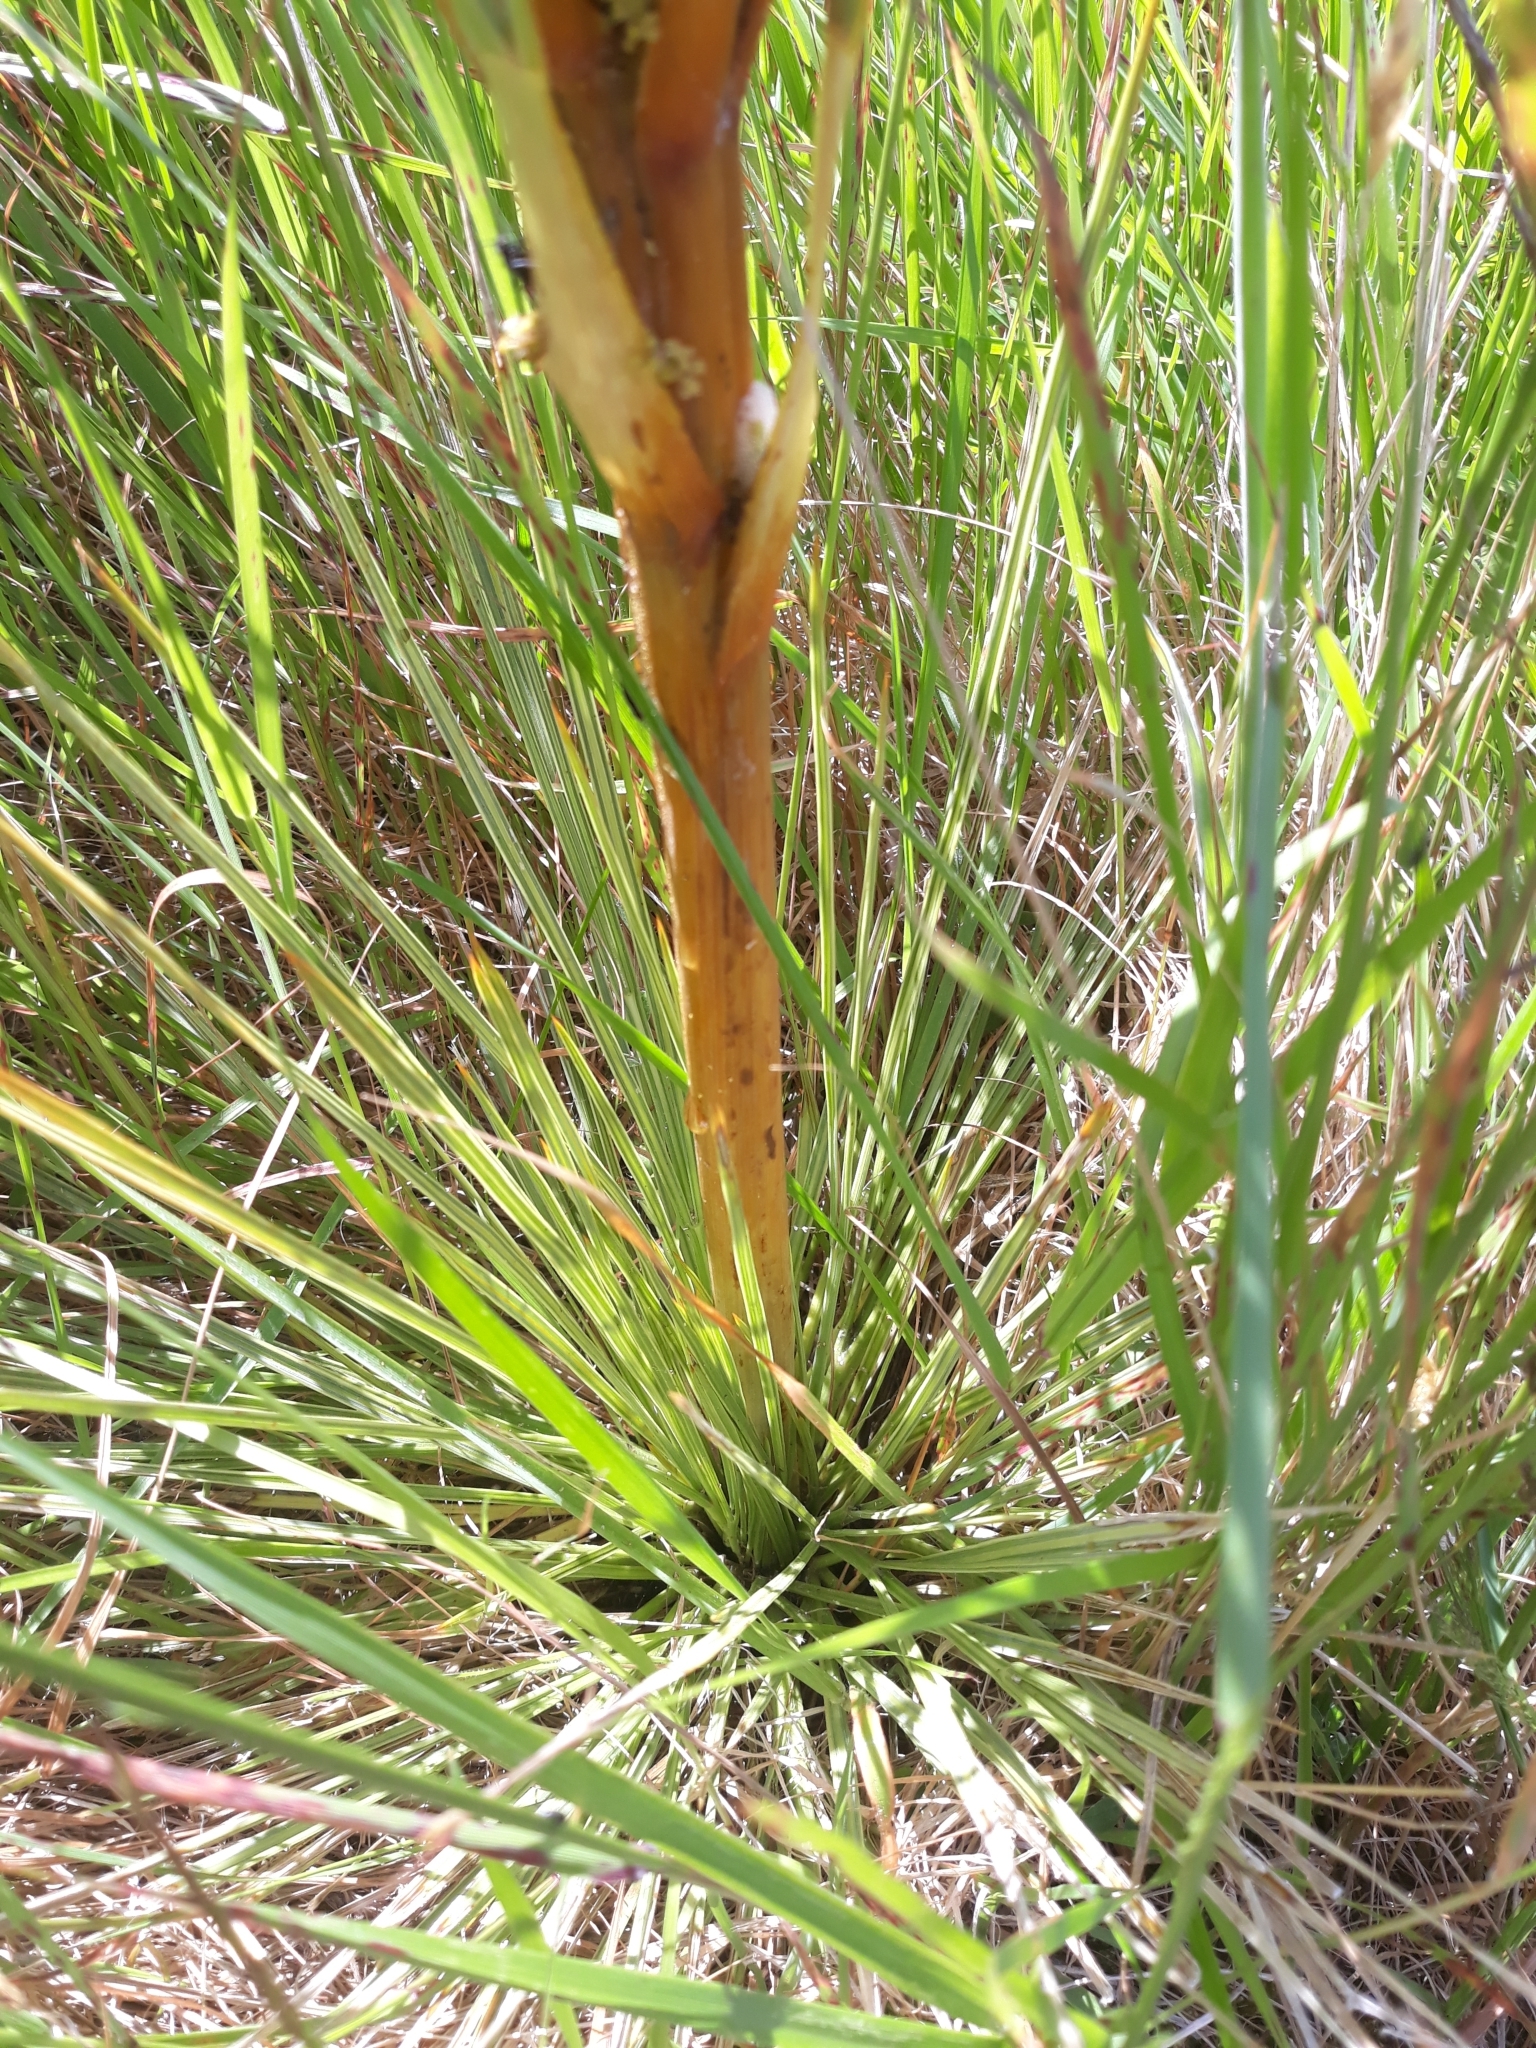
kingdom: Plantae
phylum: Tracheophyta
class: Magnoliopsida
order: Apiales
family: Apiaceae
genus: Aciphylla
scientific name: Aciphylla subflabellata
